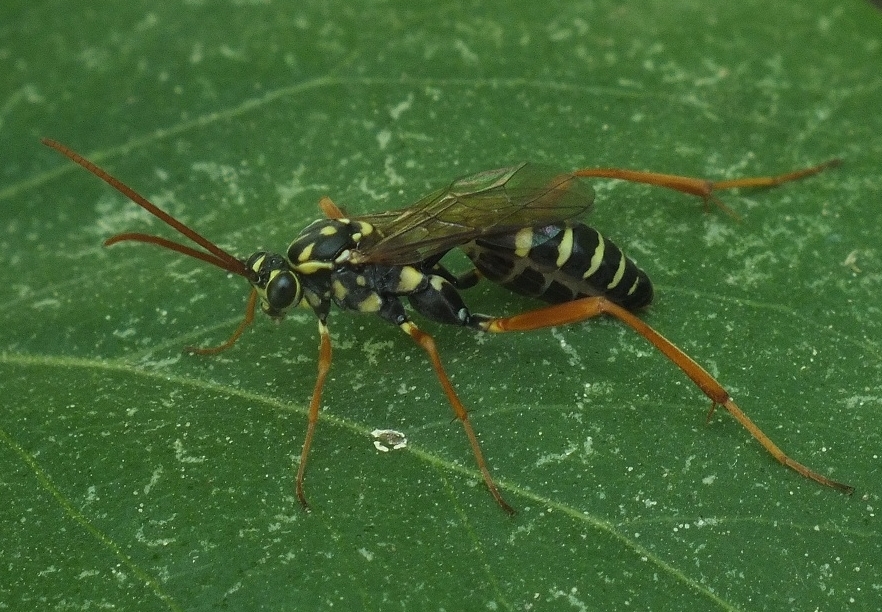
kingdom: Animalia
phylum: Arthropoda
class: Insecta
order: Hymenoptera
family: Ichneumonidae
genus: Latibulus
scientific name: Latibulus argiolus
